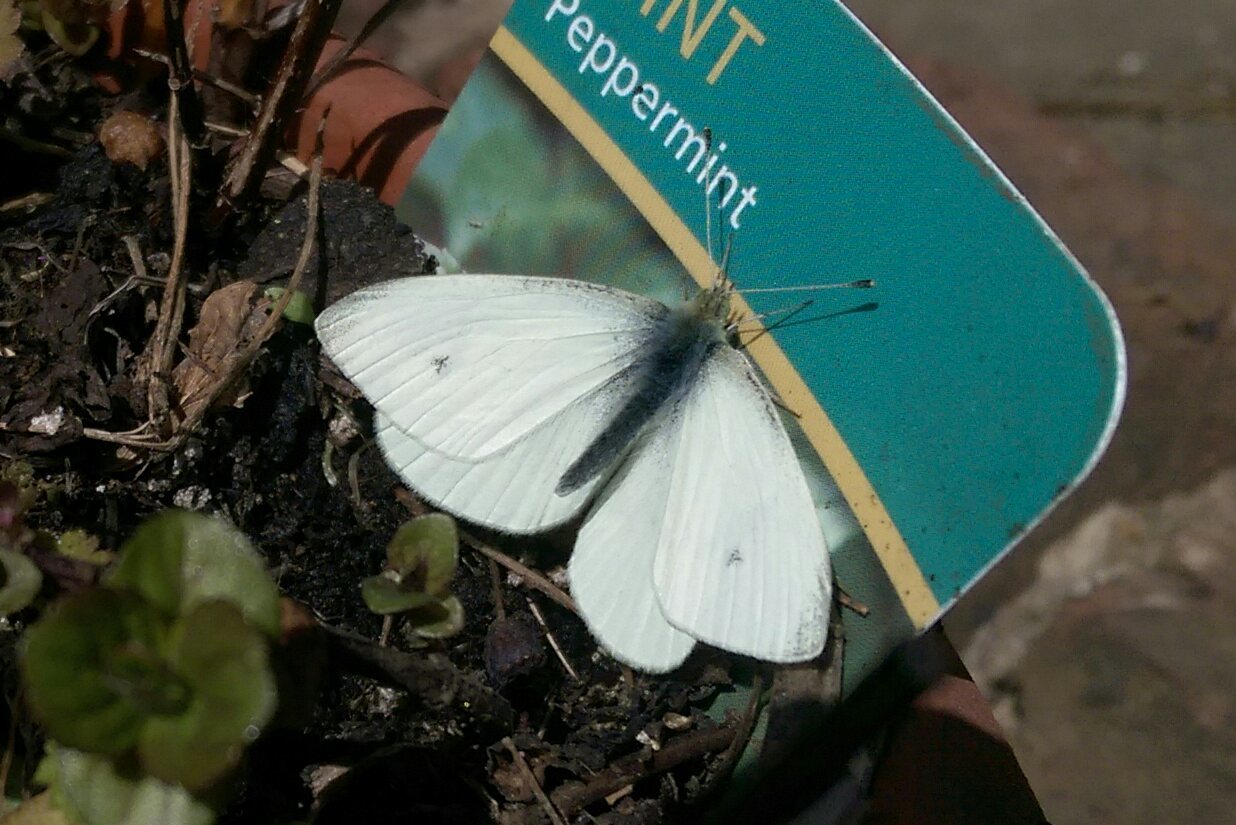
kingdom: Animalia
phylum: Arthropoda
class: Insecta
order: Lepidoptera
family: Pieridae
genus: Pieris
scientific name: Pieris rapae
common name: Small white
